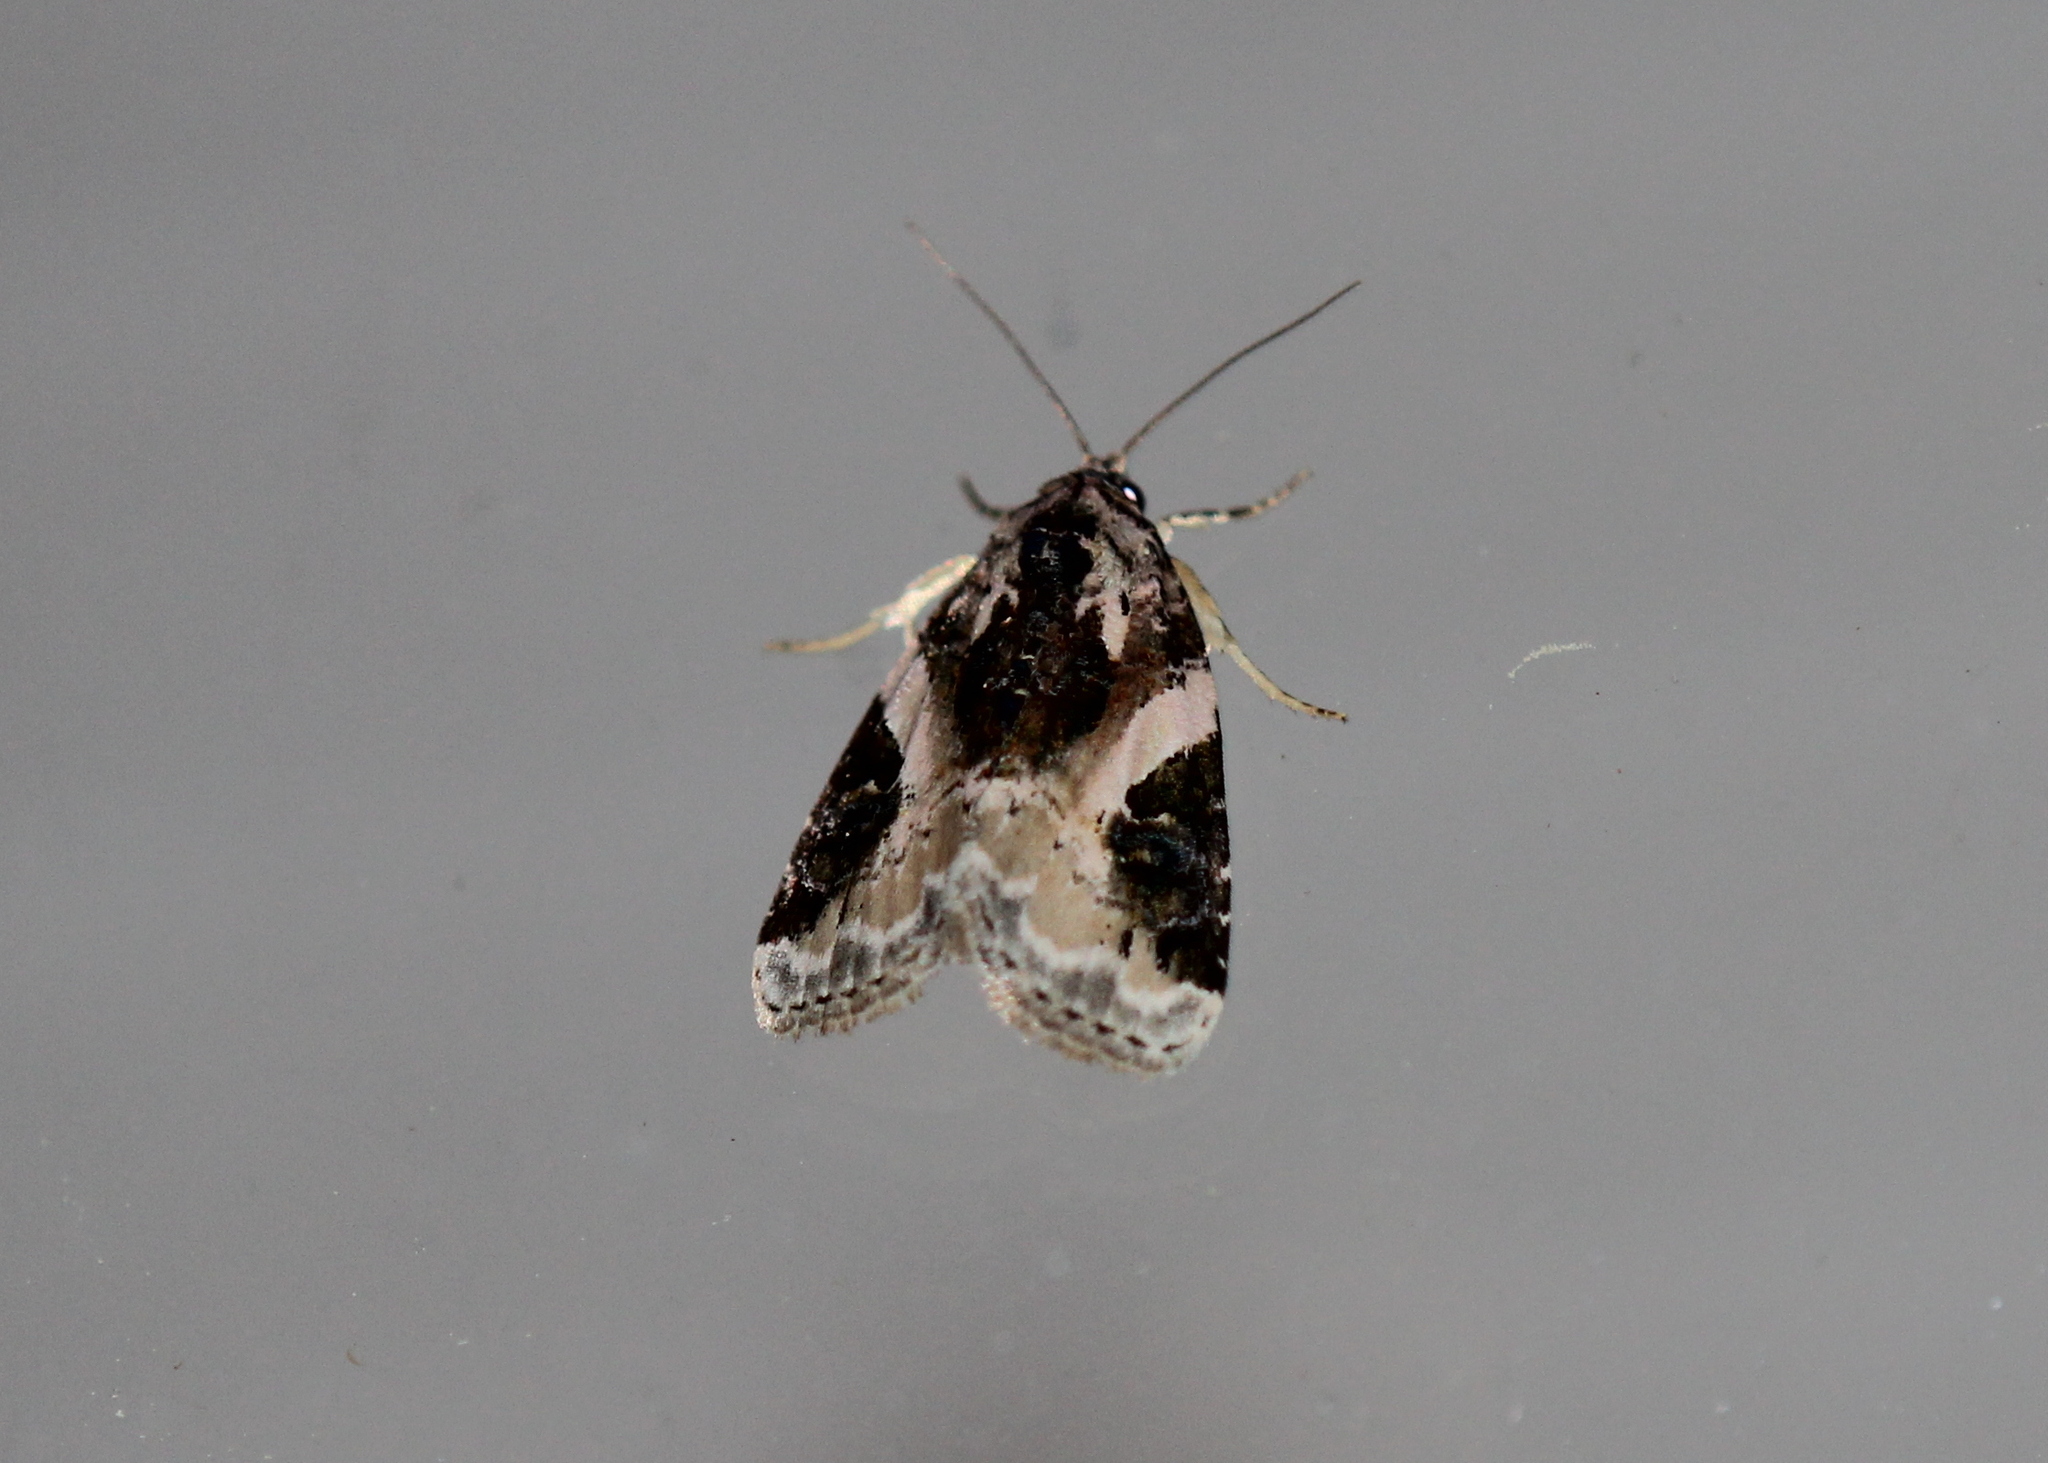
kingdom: Animalia
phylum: Arthropoda
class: Insecta
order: Lepidoptera
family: Noctuidae
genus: Pseudeustrotia
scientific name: Pseudeustrotia carneola
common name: Pink-barred lithacodia moth
